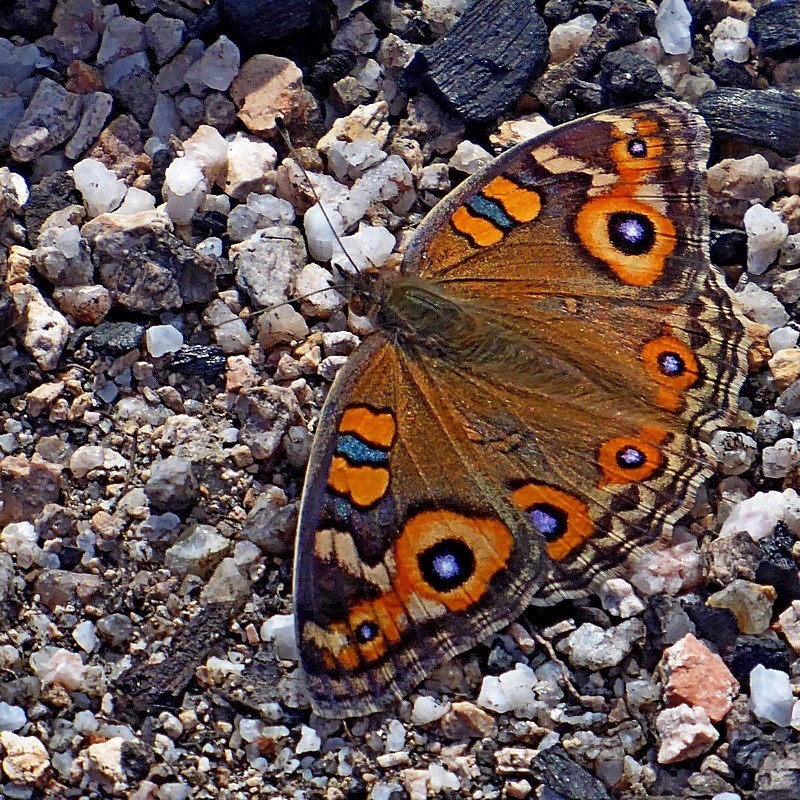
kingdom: Animalia
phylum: Arthropoda
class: Insecta
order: Lepidoptera
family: Nymphalidae
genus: Junonia
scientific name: Junonia villida
